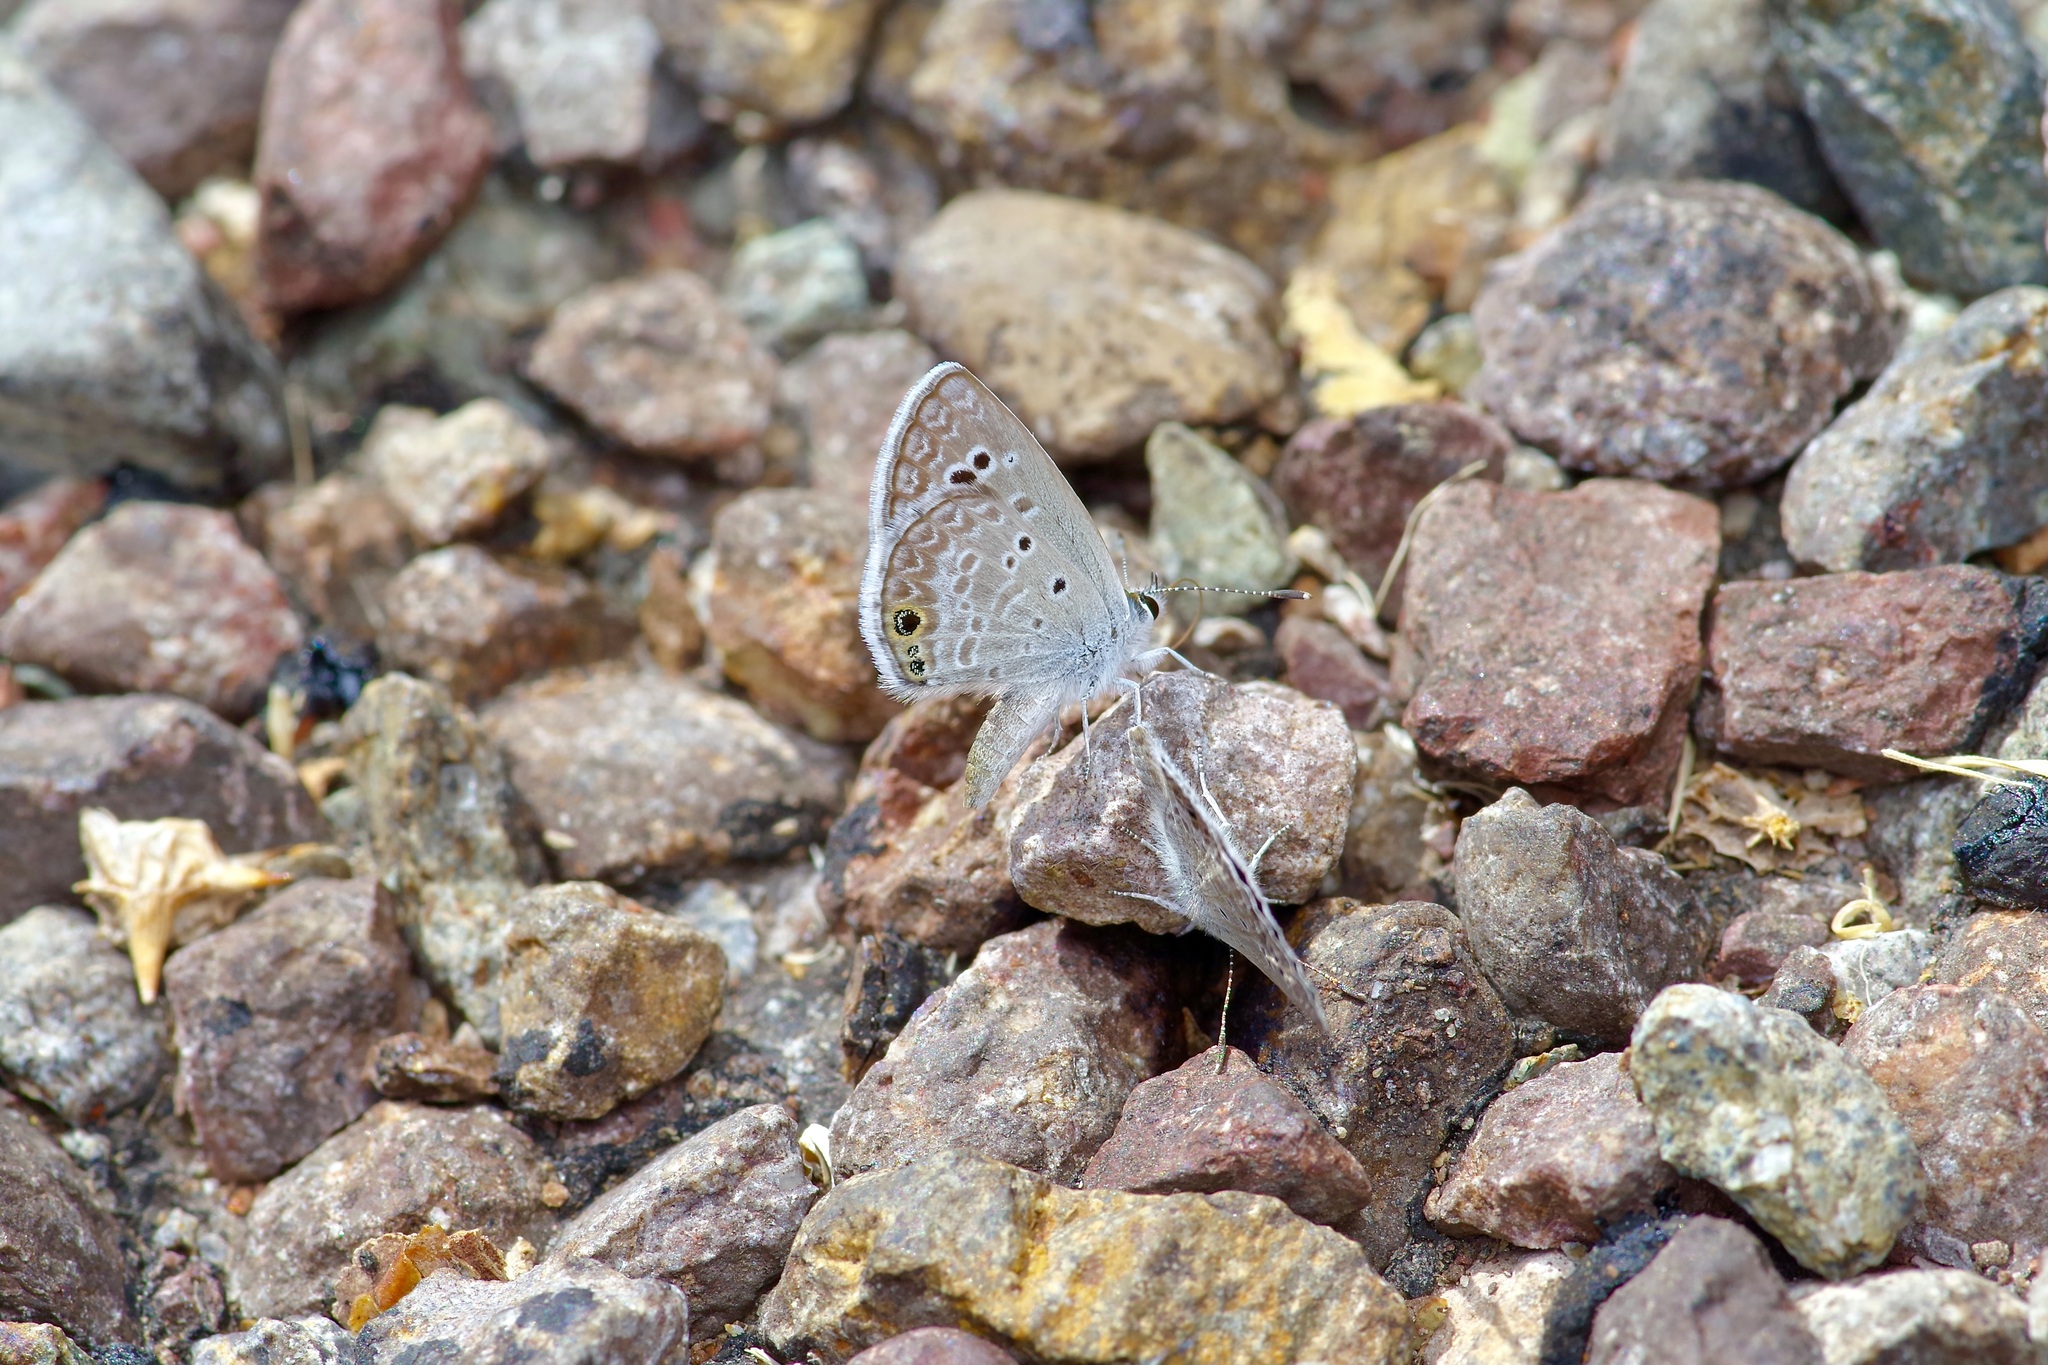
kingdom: Animalia
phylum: Arthropoda
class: Insecta
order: Lepidoptera
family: Lycaenidae
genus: Echinargus
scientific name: Echinargus isola
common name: Reakirt's blue
